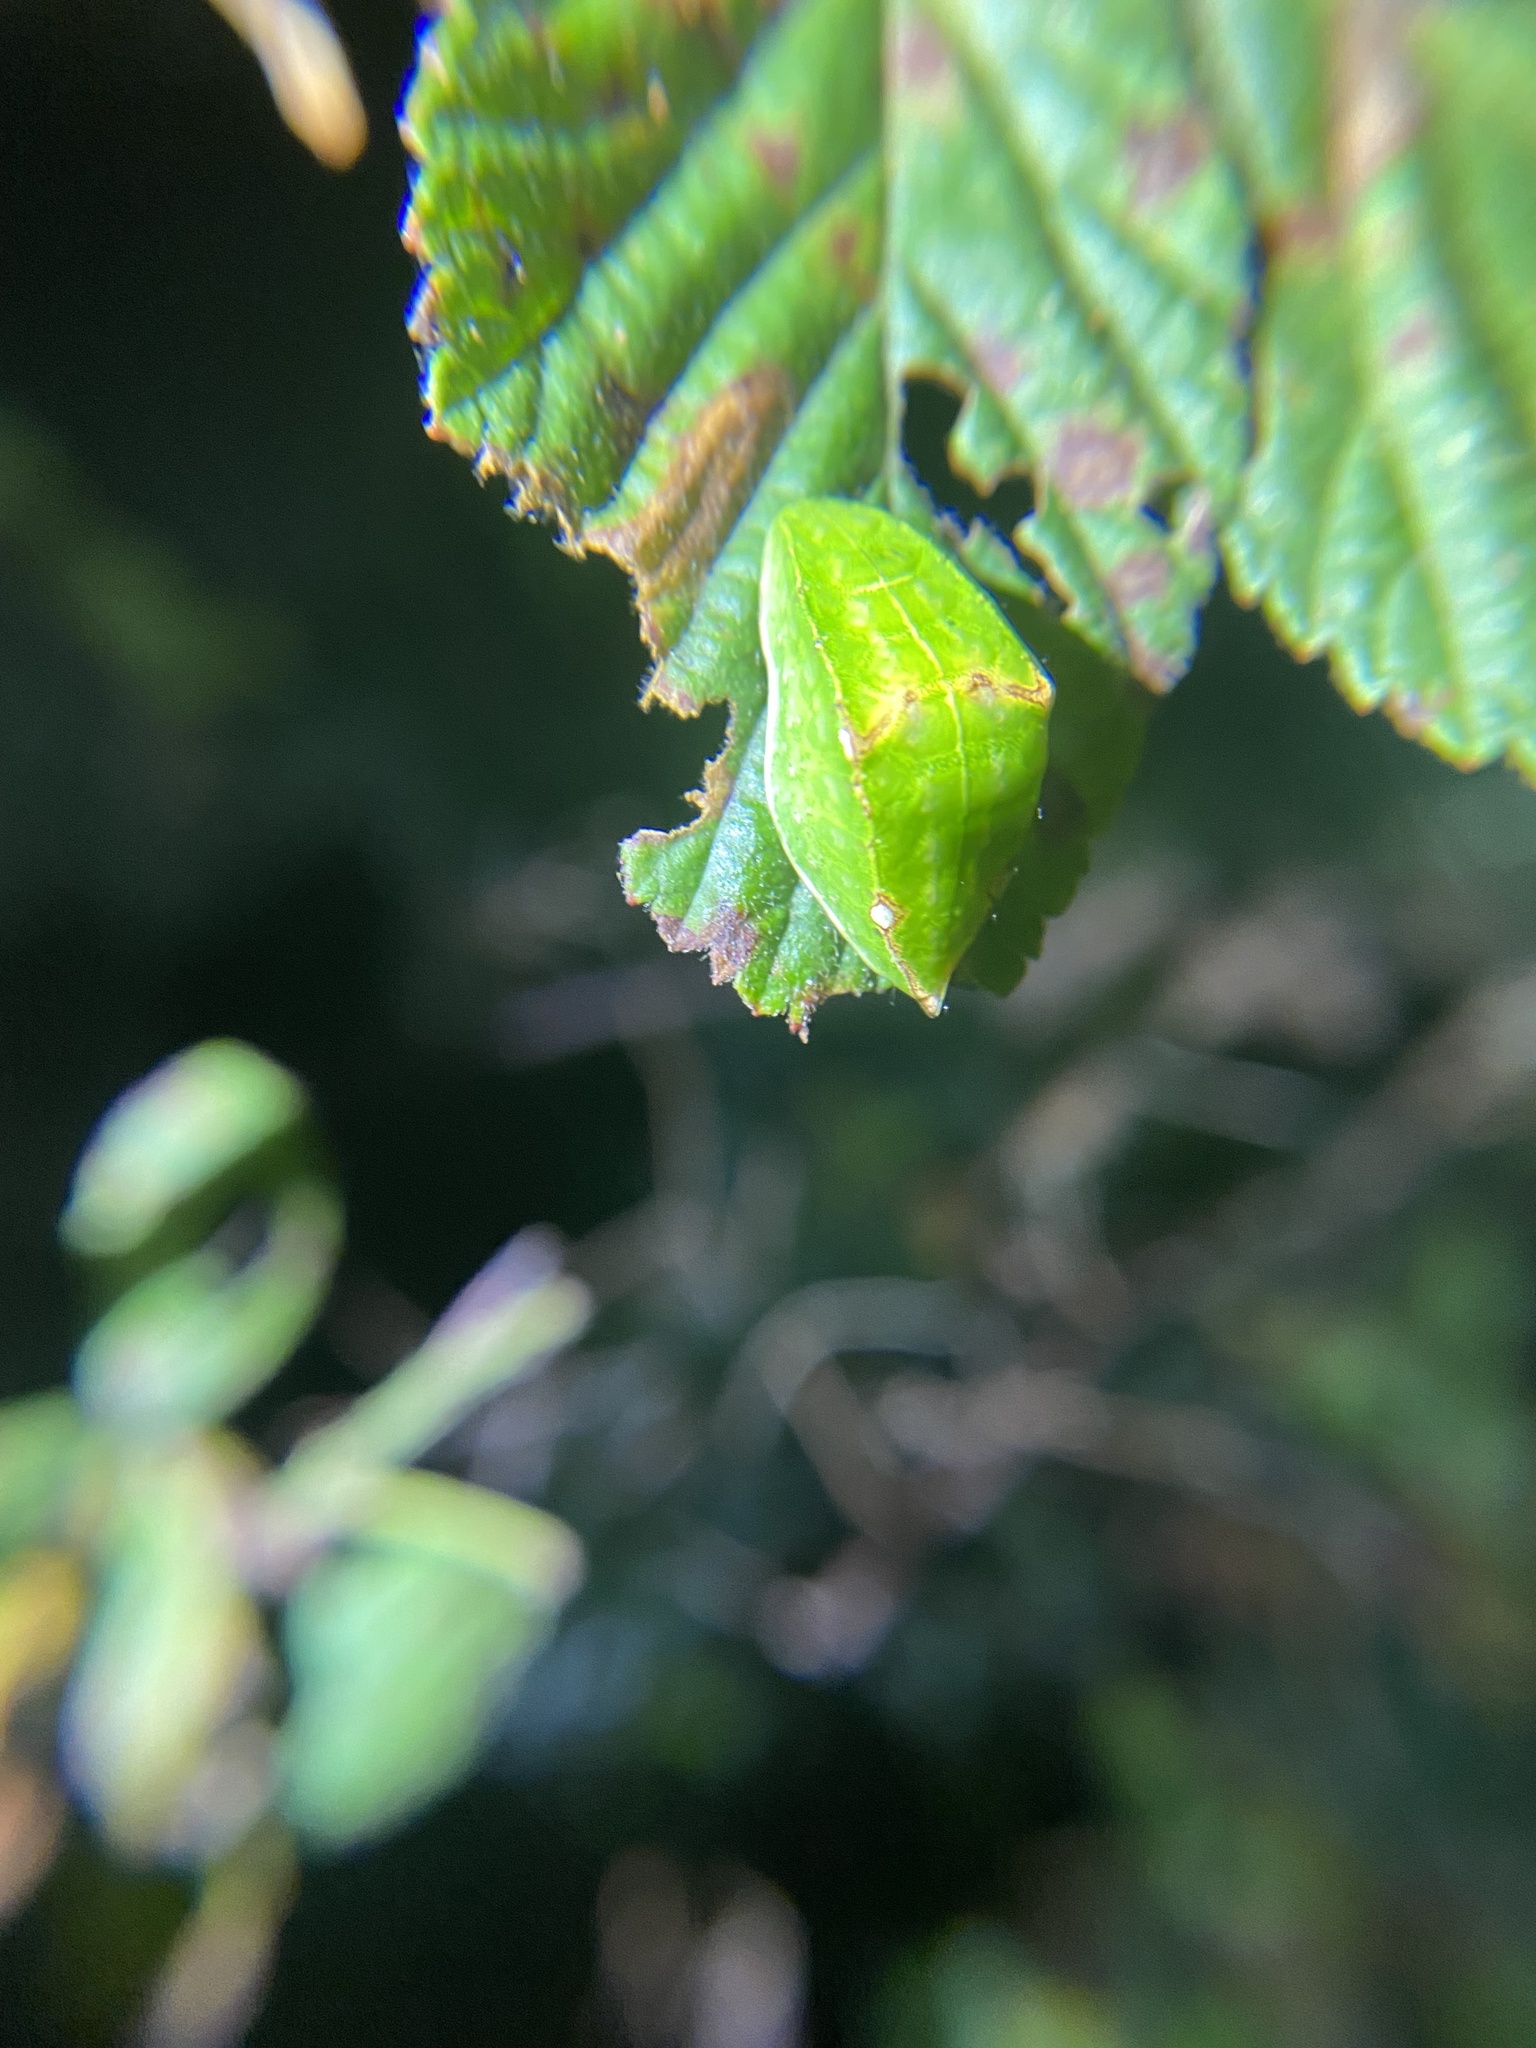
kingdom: Animalia
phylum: Arthropoda
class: Insecta
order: Lepidoptera
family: Limacodidae
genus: Prolimacodes
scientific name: Prolimacodes badia
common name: Skiff moth
